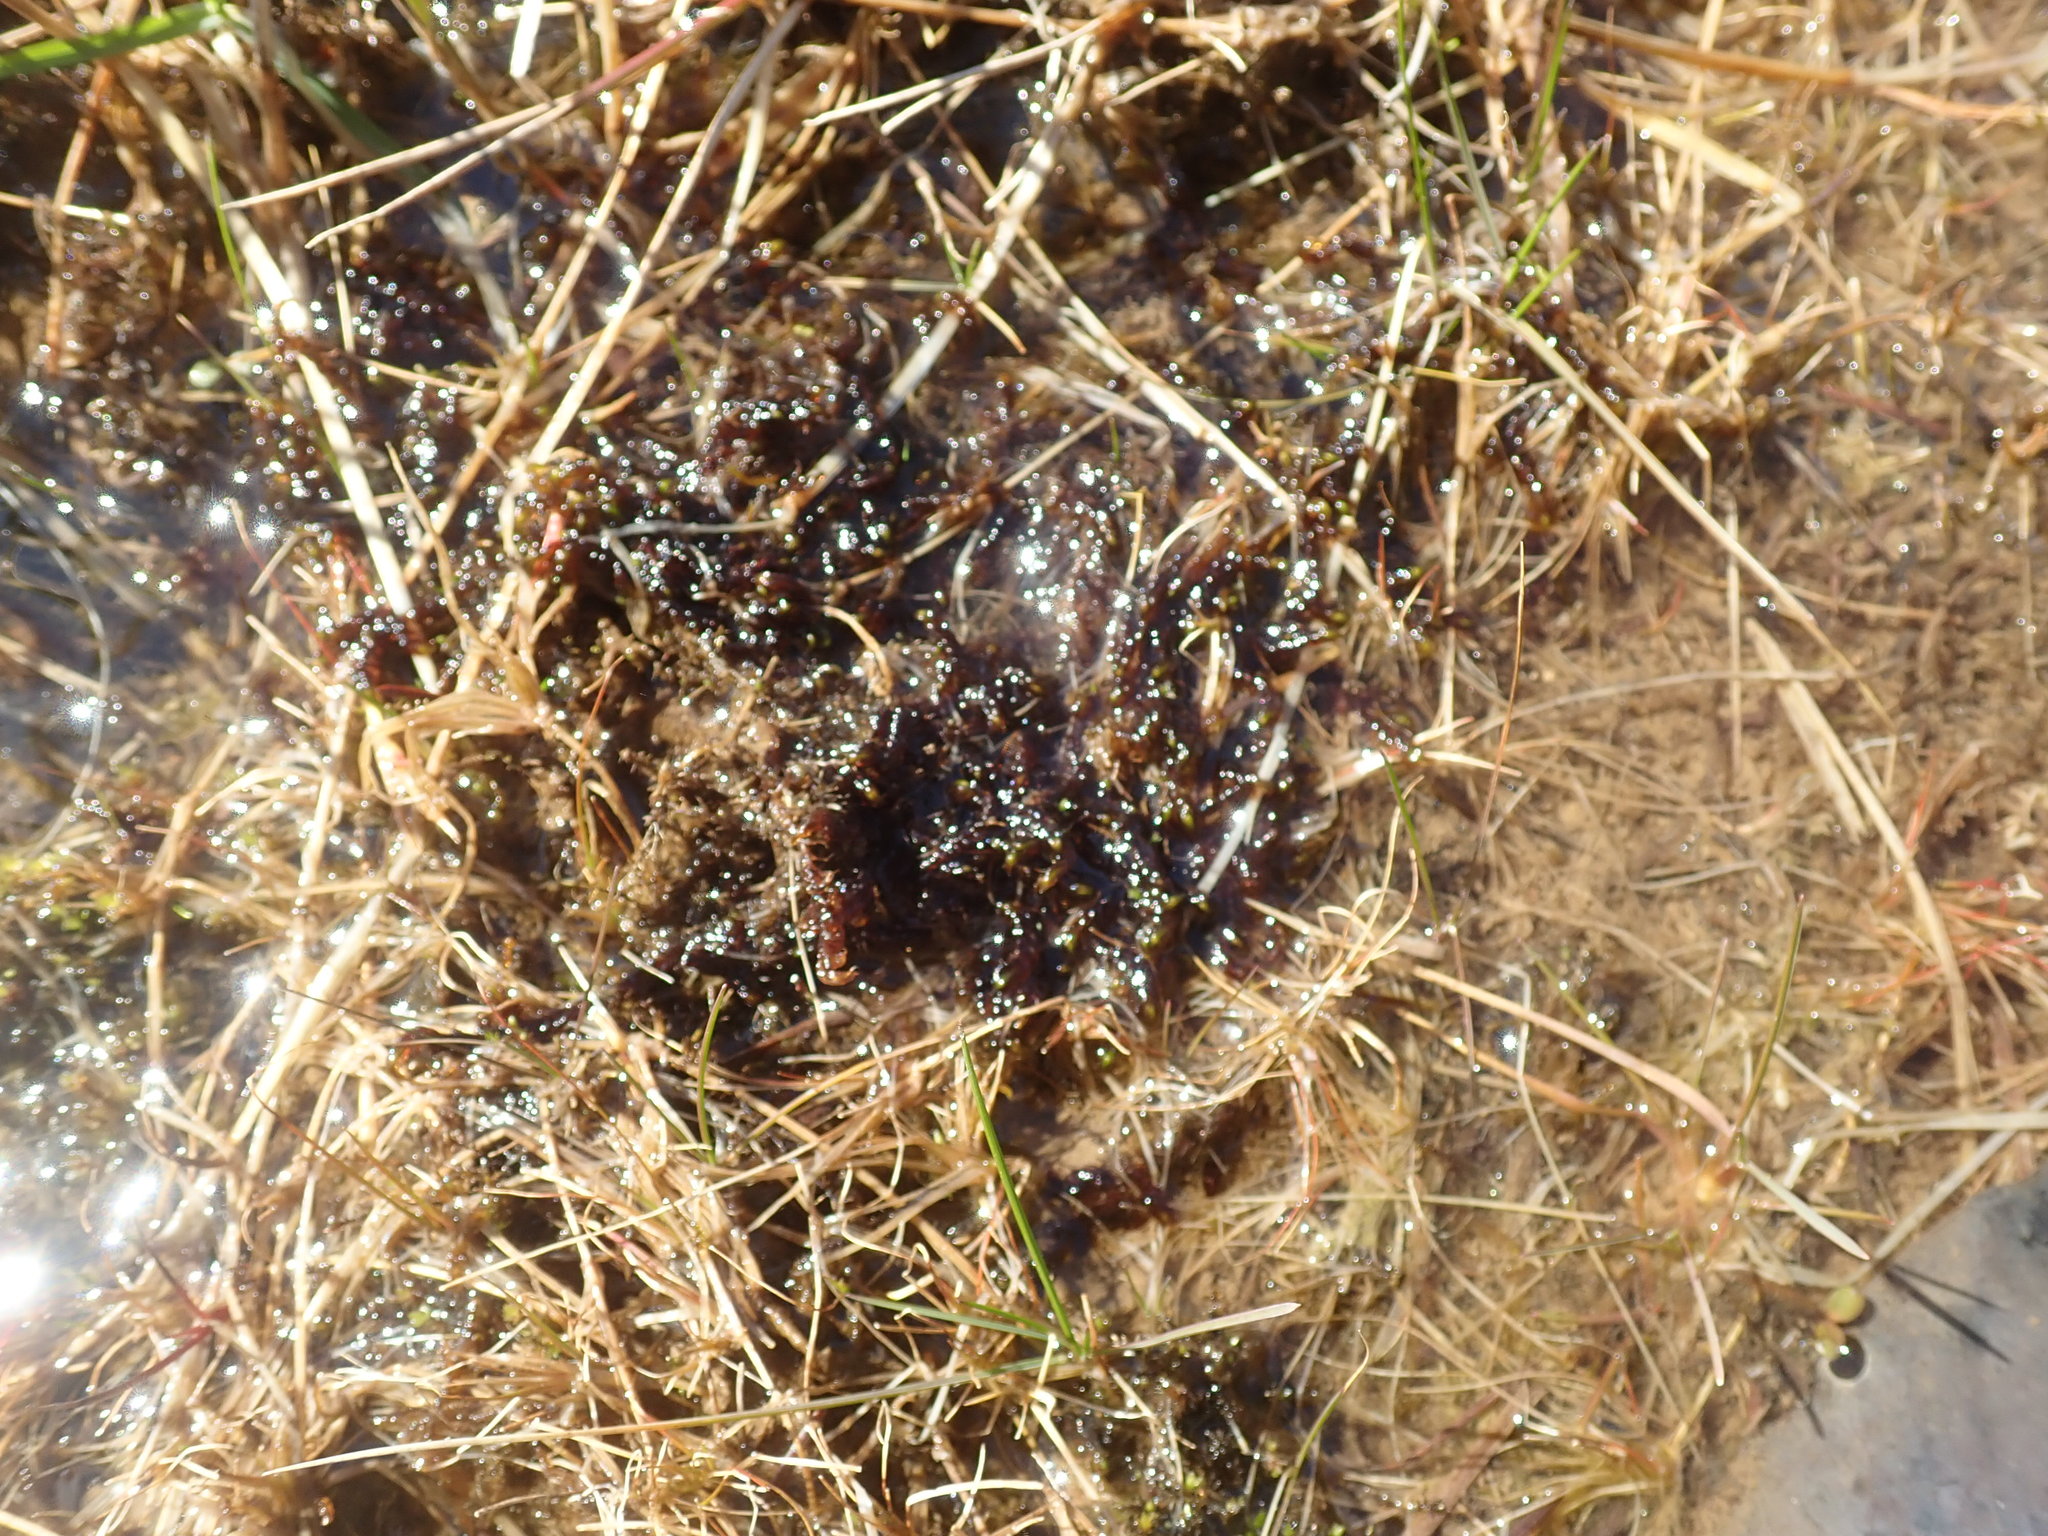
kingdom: Plantae
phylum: Bryophyta
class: Bryopsida
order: Hypnales
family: Scorpidiaceae
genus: Scorpidium
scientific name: Scorpidium revolvens
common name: Rusty hook moss
